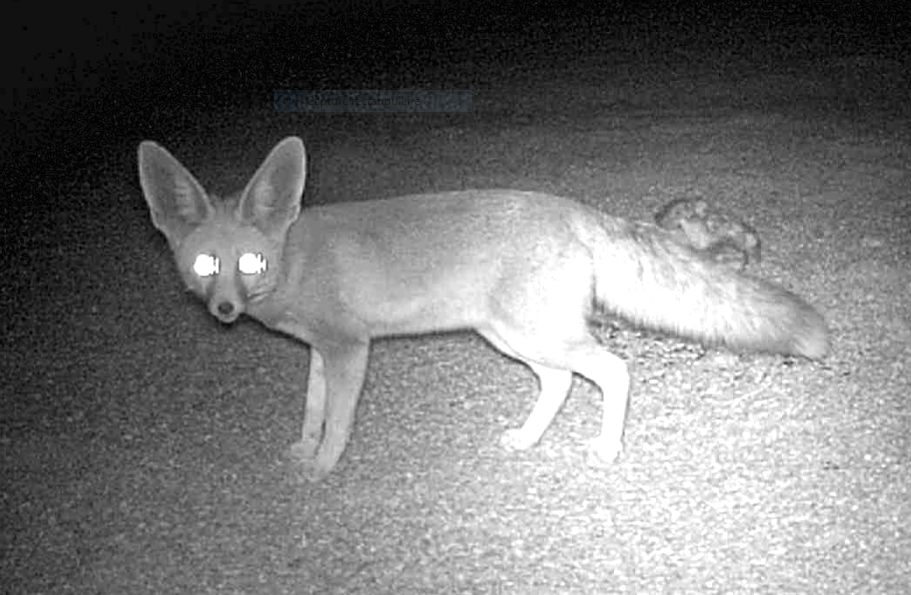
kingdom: Animalia
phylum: Chordata
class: Mammalia
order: Carnivora
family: Canidae
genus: Vulpes
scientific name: Vulpes rueppellii
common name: Sand fox
